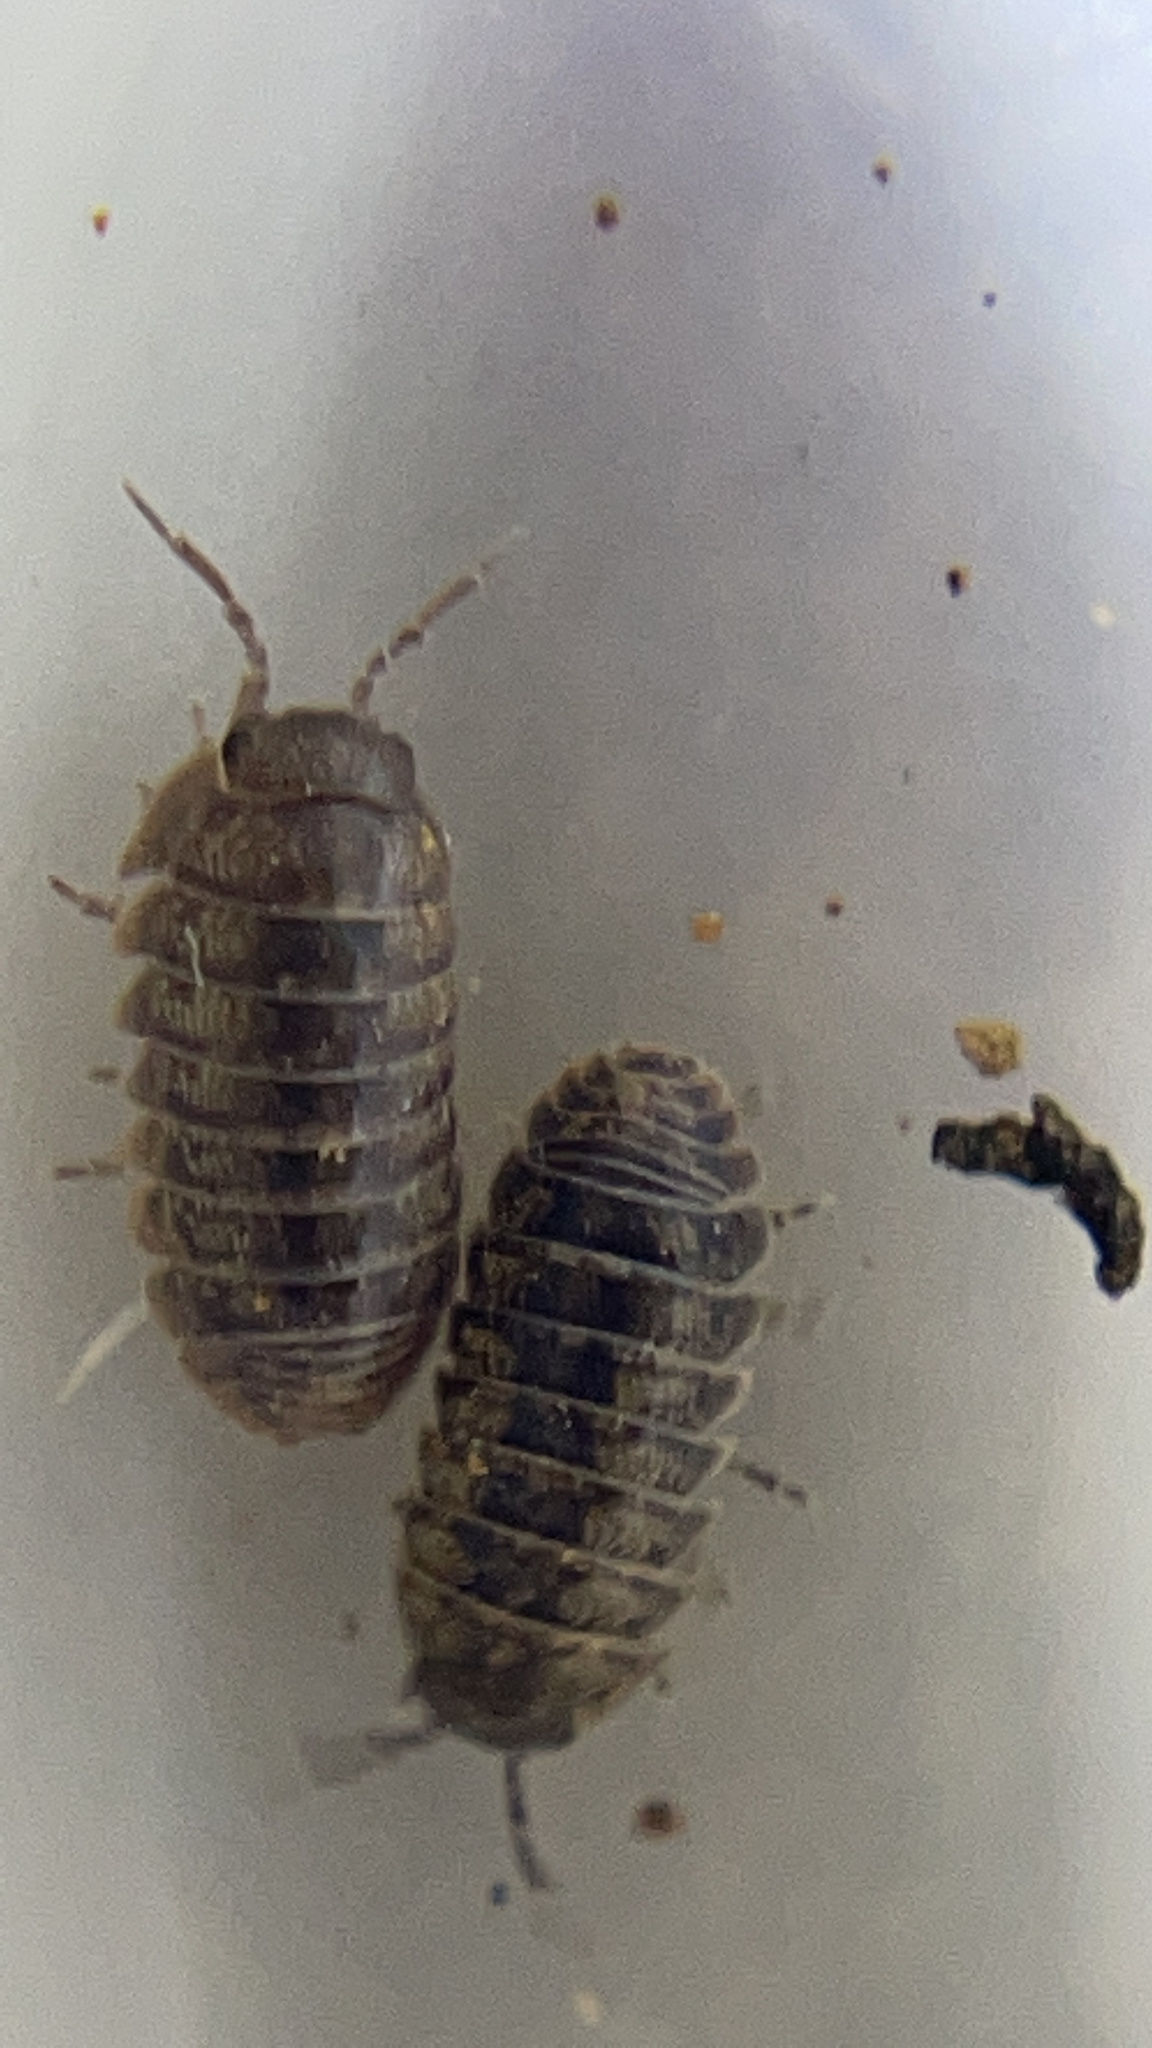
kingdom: Animalia
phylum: Arthropoda
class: Malacostraca
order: Isopoda
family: Armadillidiidae
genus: Armadillidium
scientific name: Armadillidium vulgare
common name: Common pill woodlouse
